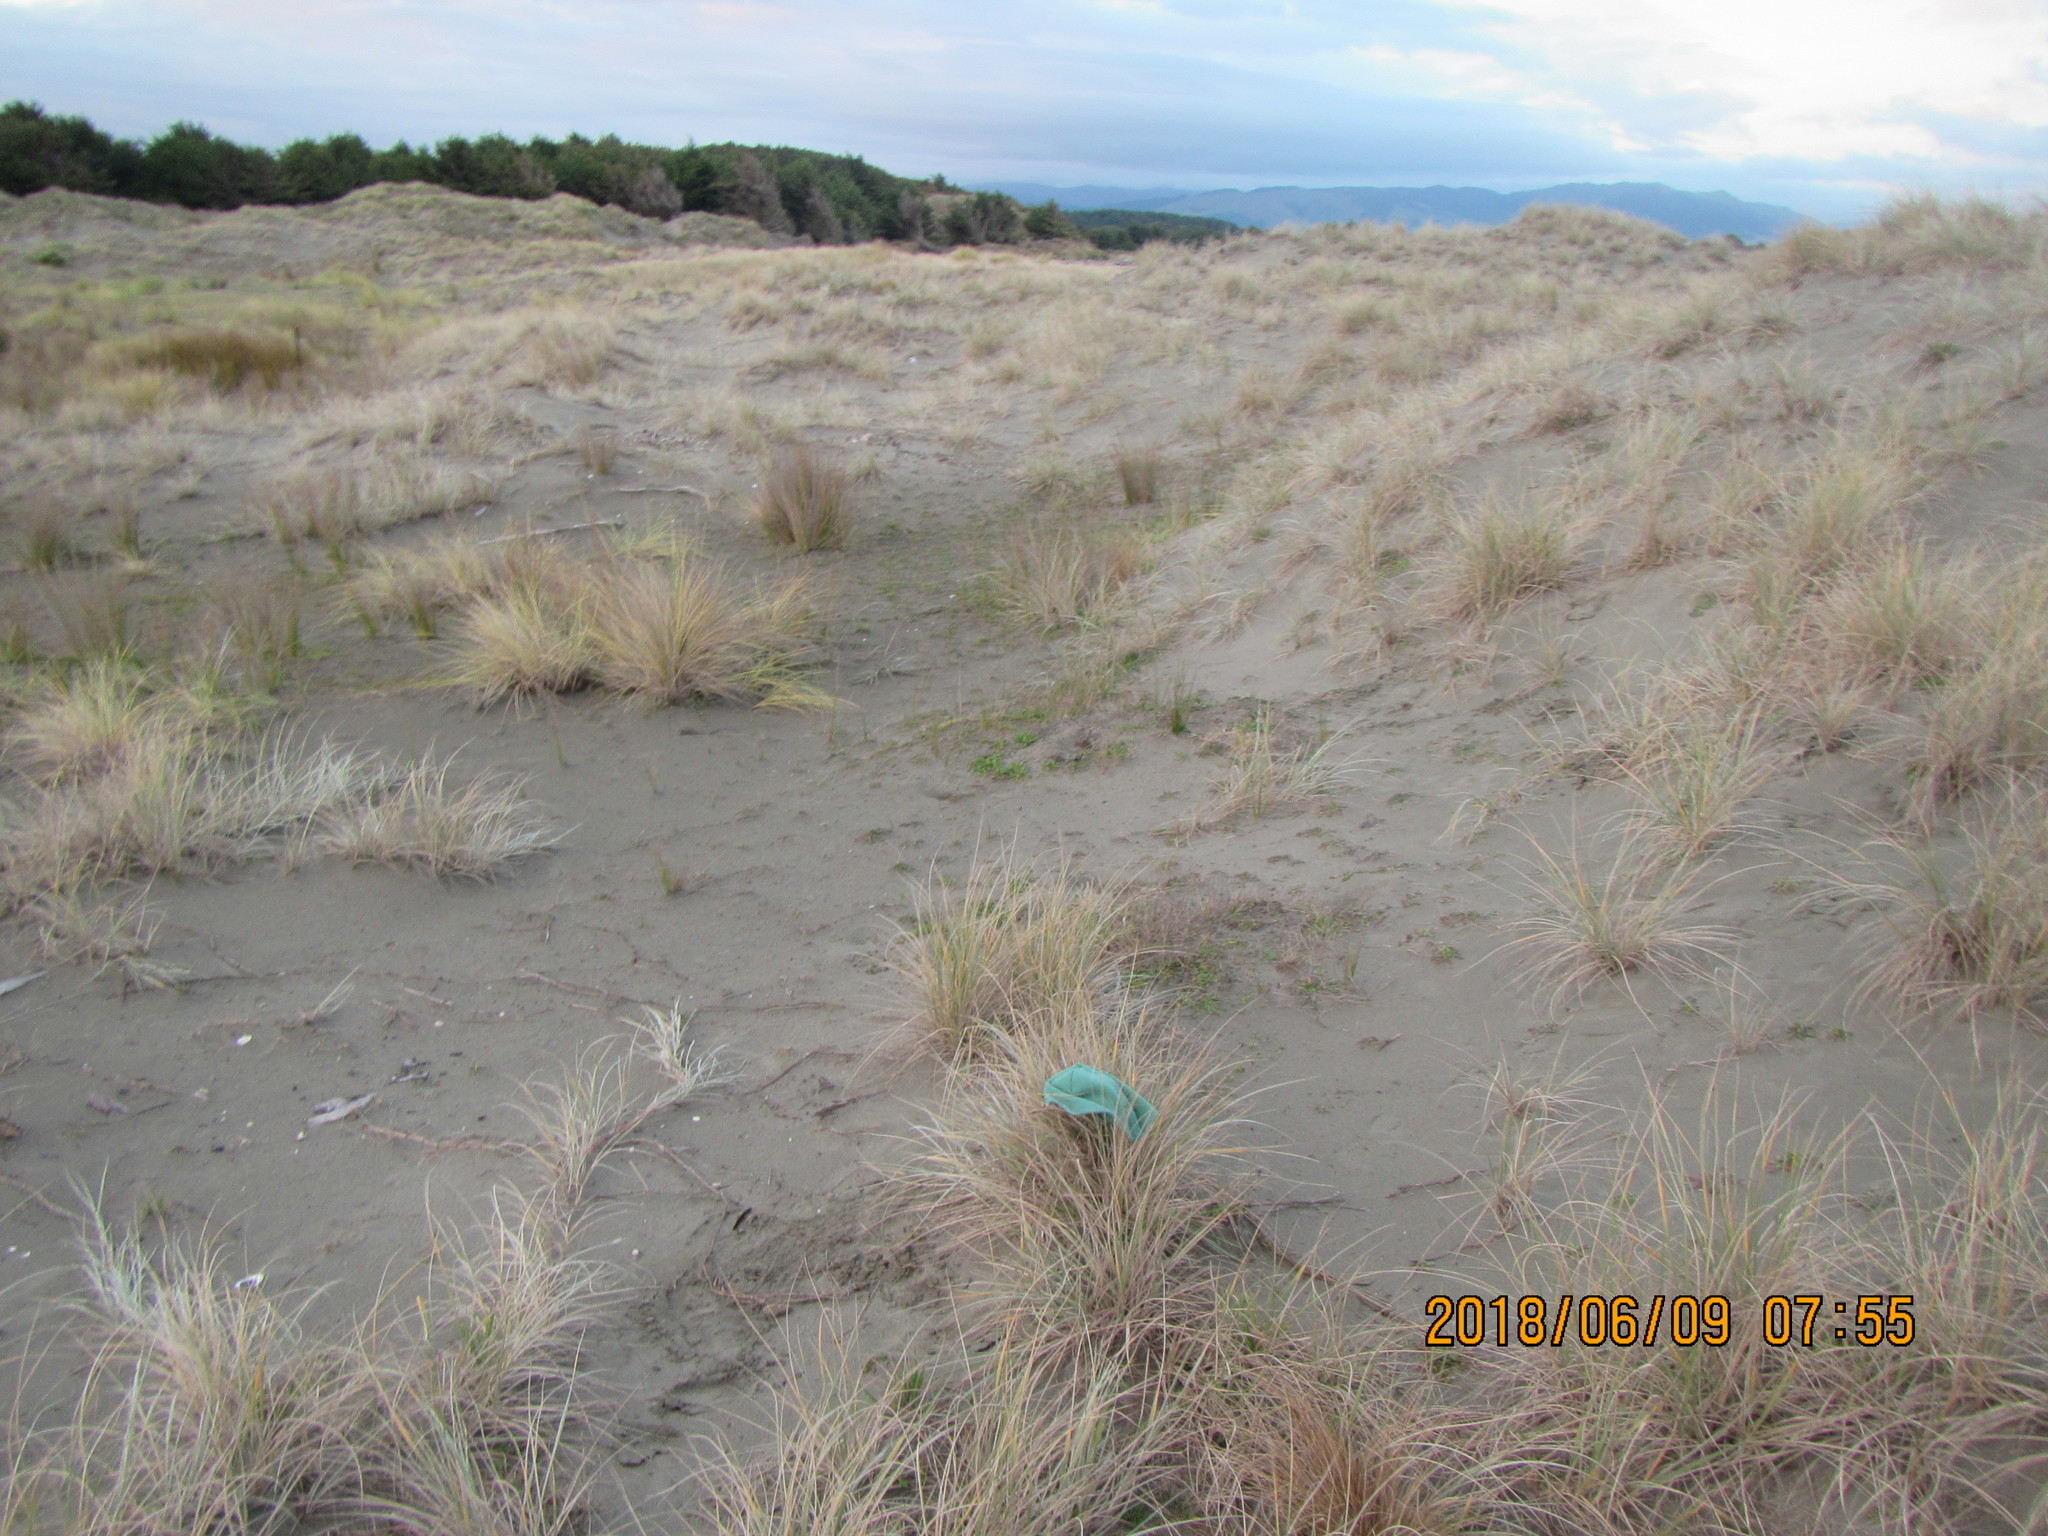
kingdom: Animalia
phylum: Arthropoda
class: Arachnida
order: Araneae
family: Oxyopidae
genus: Oxyopes
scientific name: Oxyopes gracilipes
